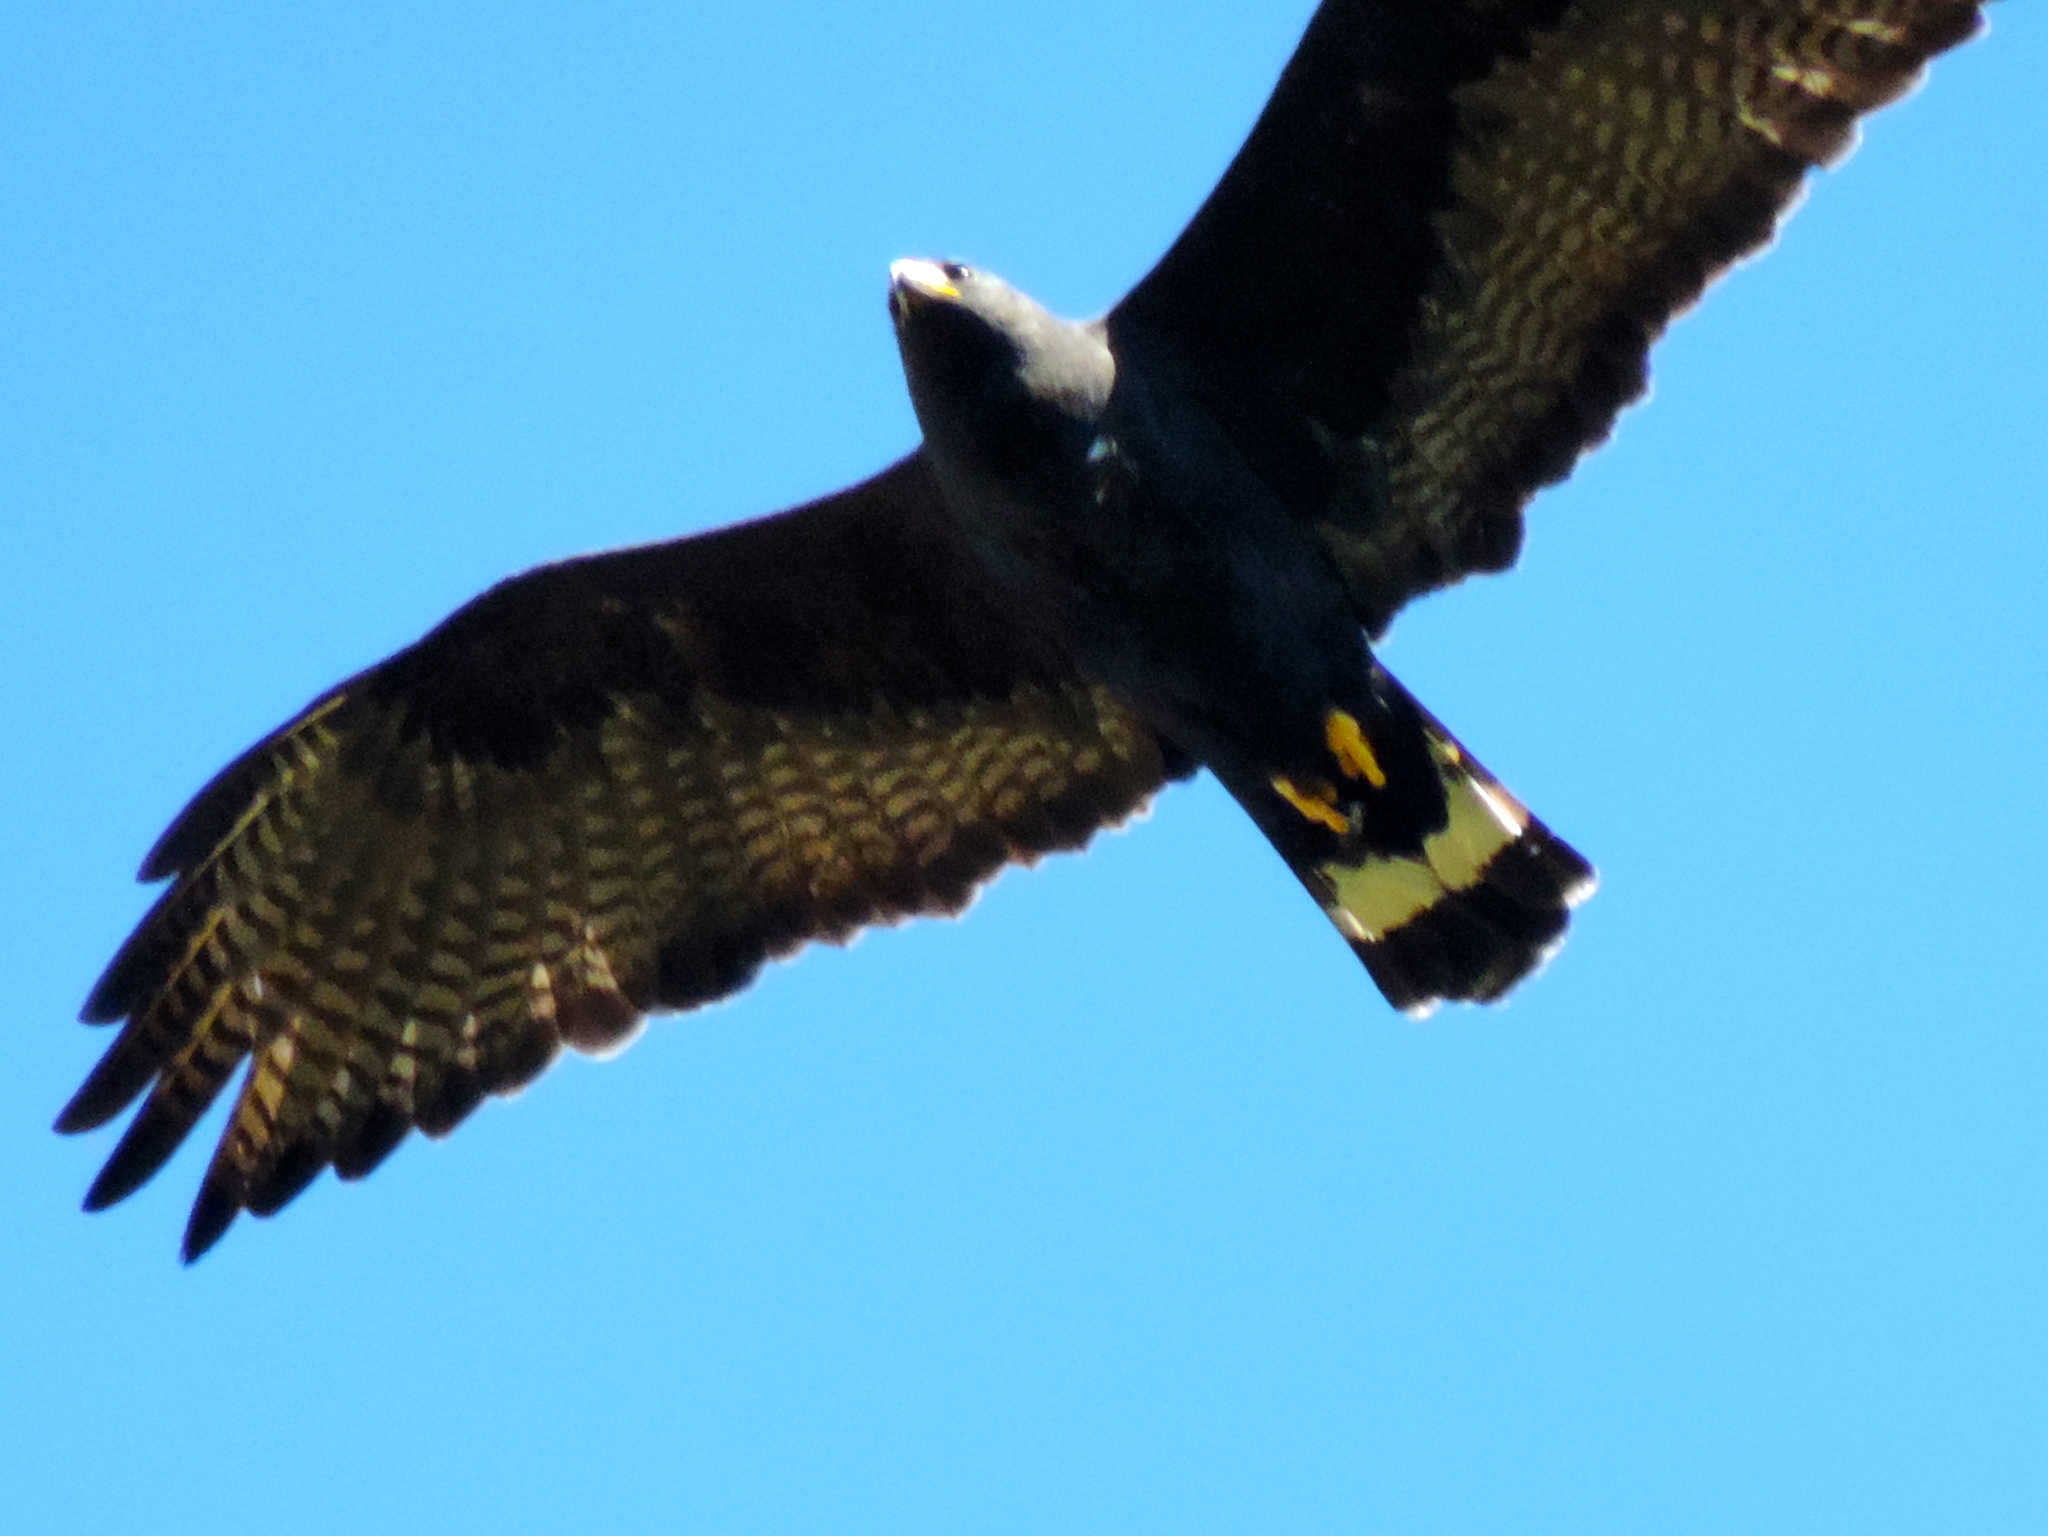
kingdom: Animalia
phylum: Chordata
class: Aves
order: Accipitriformes
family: Accipitridae
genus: Buteo
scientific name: Buteo albonotatus
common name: Zone-tailed hawk
